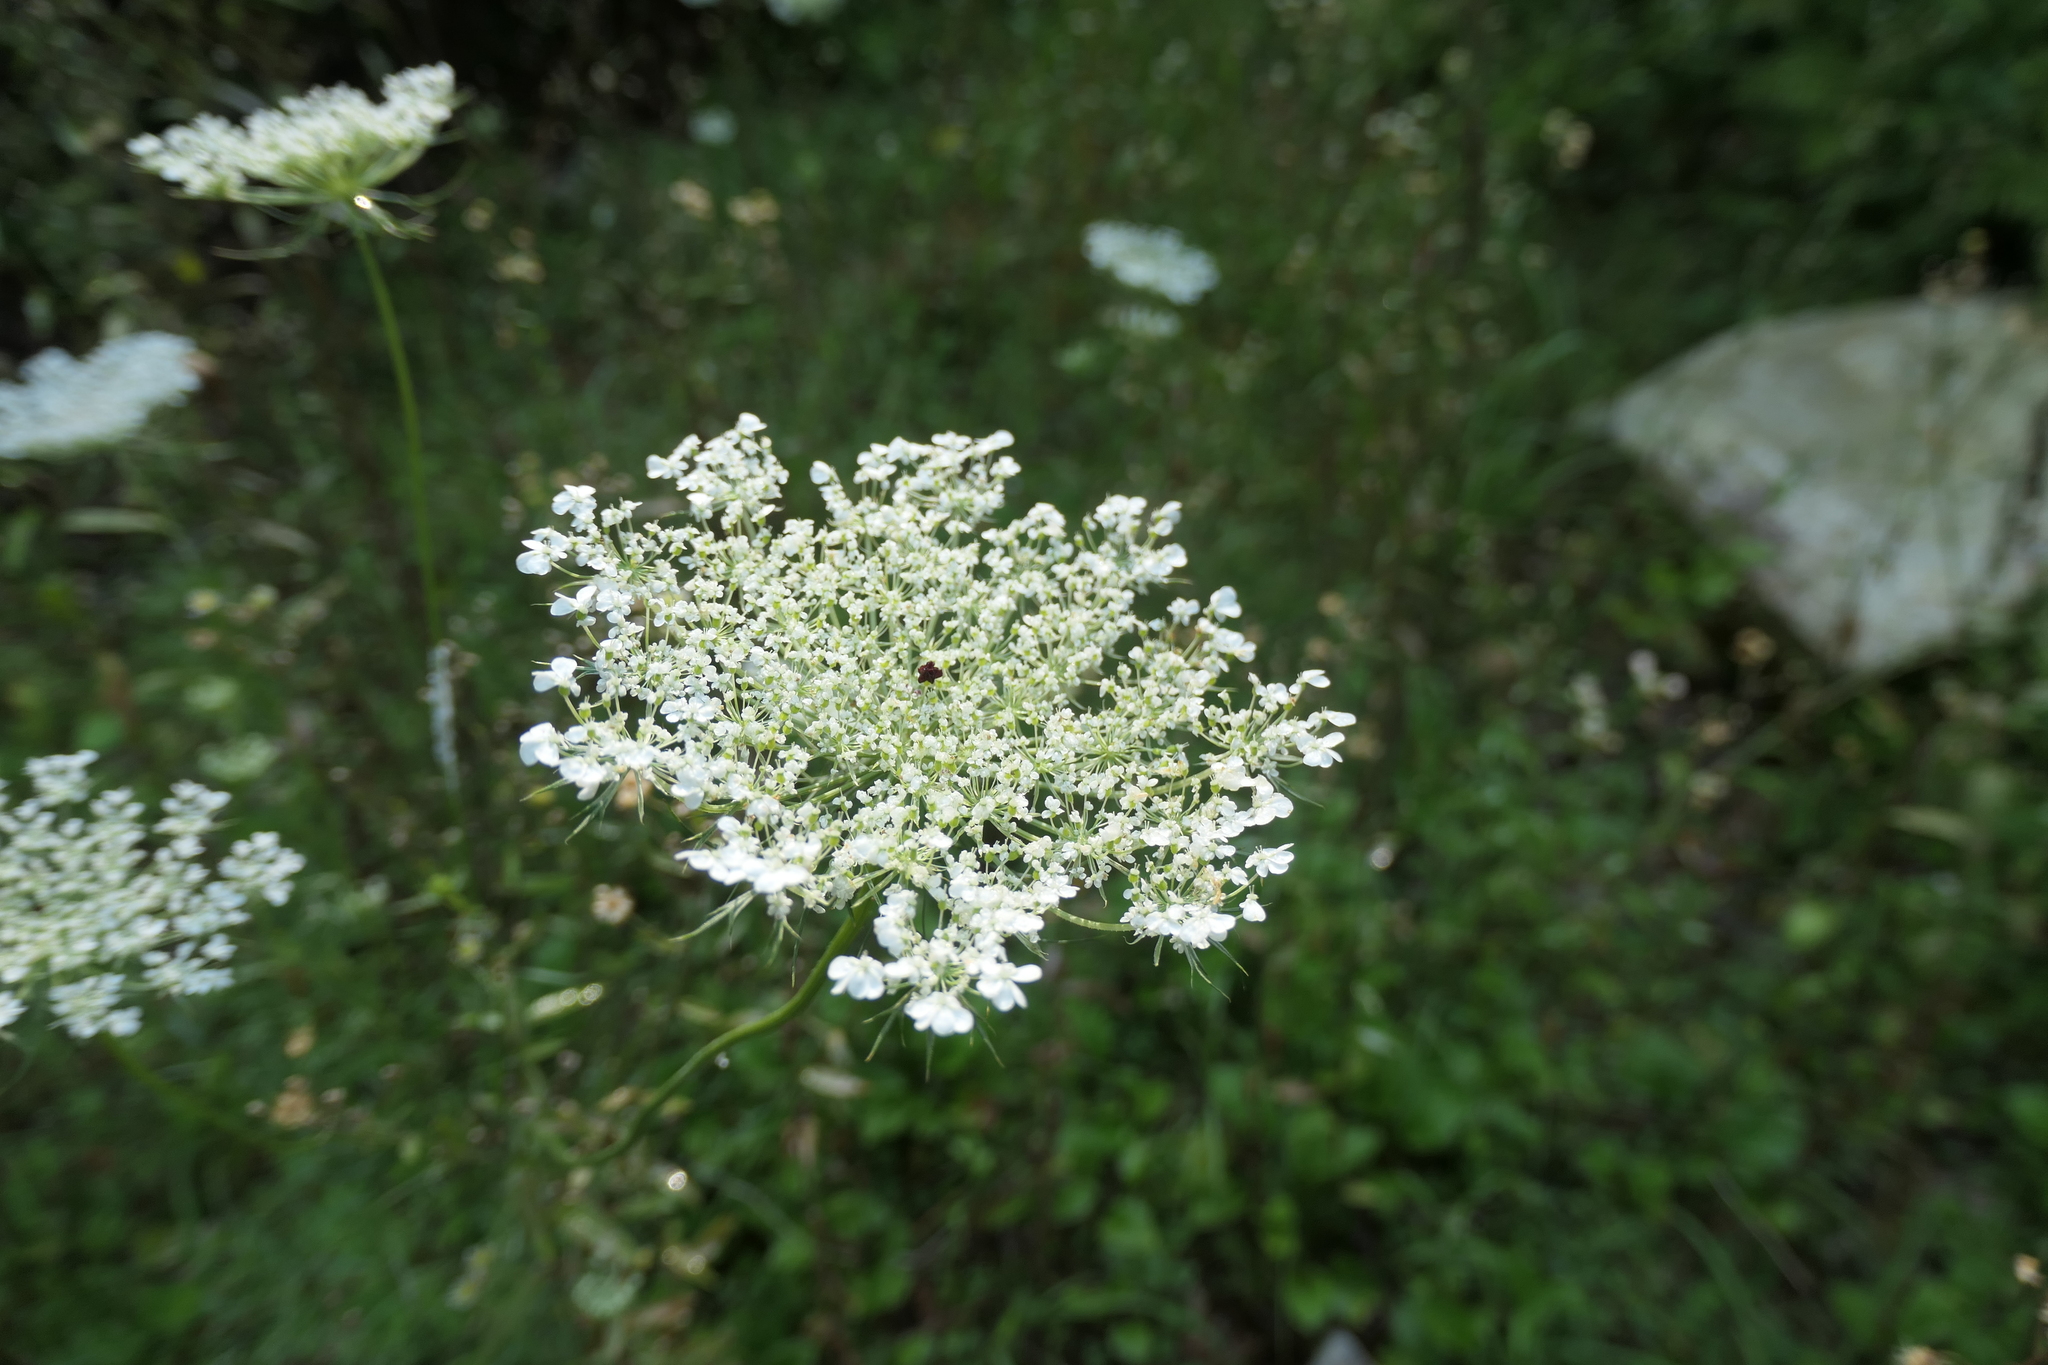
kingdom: Plantae
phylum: Tracheophyta
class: Magnoliopsida
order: Apiales
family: Apiaceae
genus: Daucus
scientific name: Daucus carota
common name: Wild carrot
